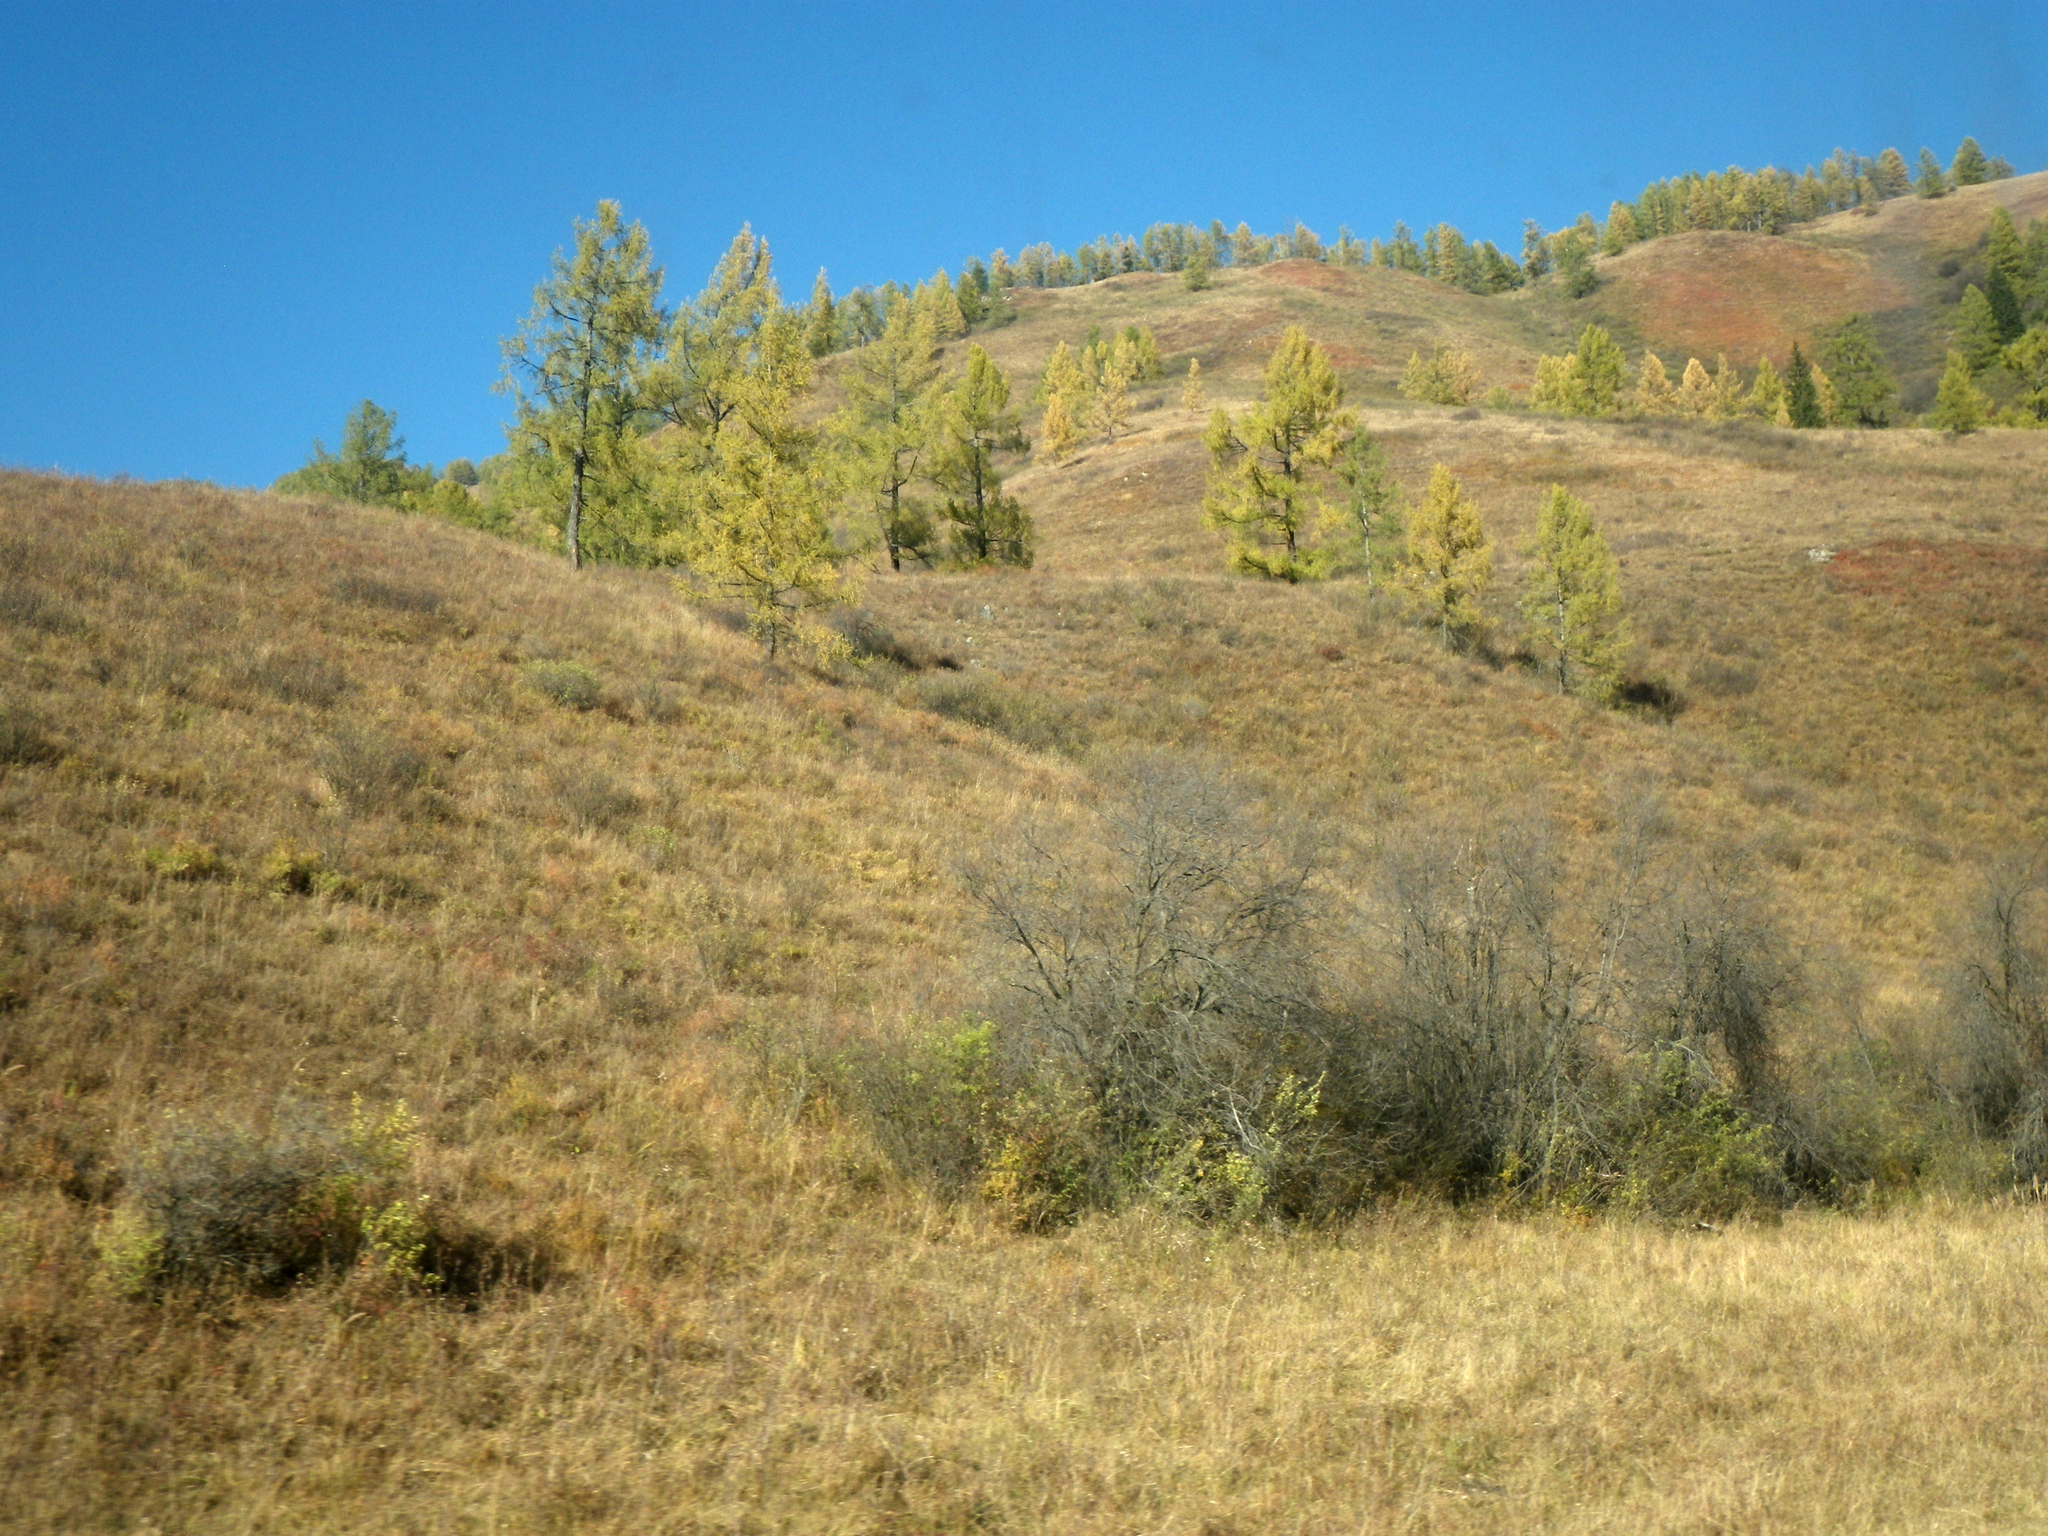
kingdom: Plantae
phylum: Tracheophyta
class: Pinopsida
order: Pinales
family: Pinaceae
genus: Larix
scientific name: Larix sibirica
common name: Siberian larch
